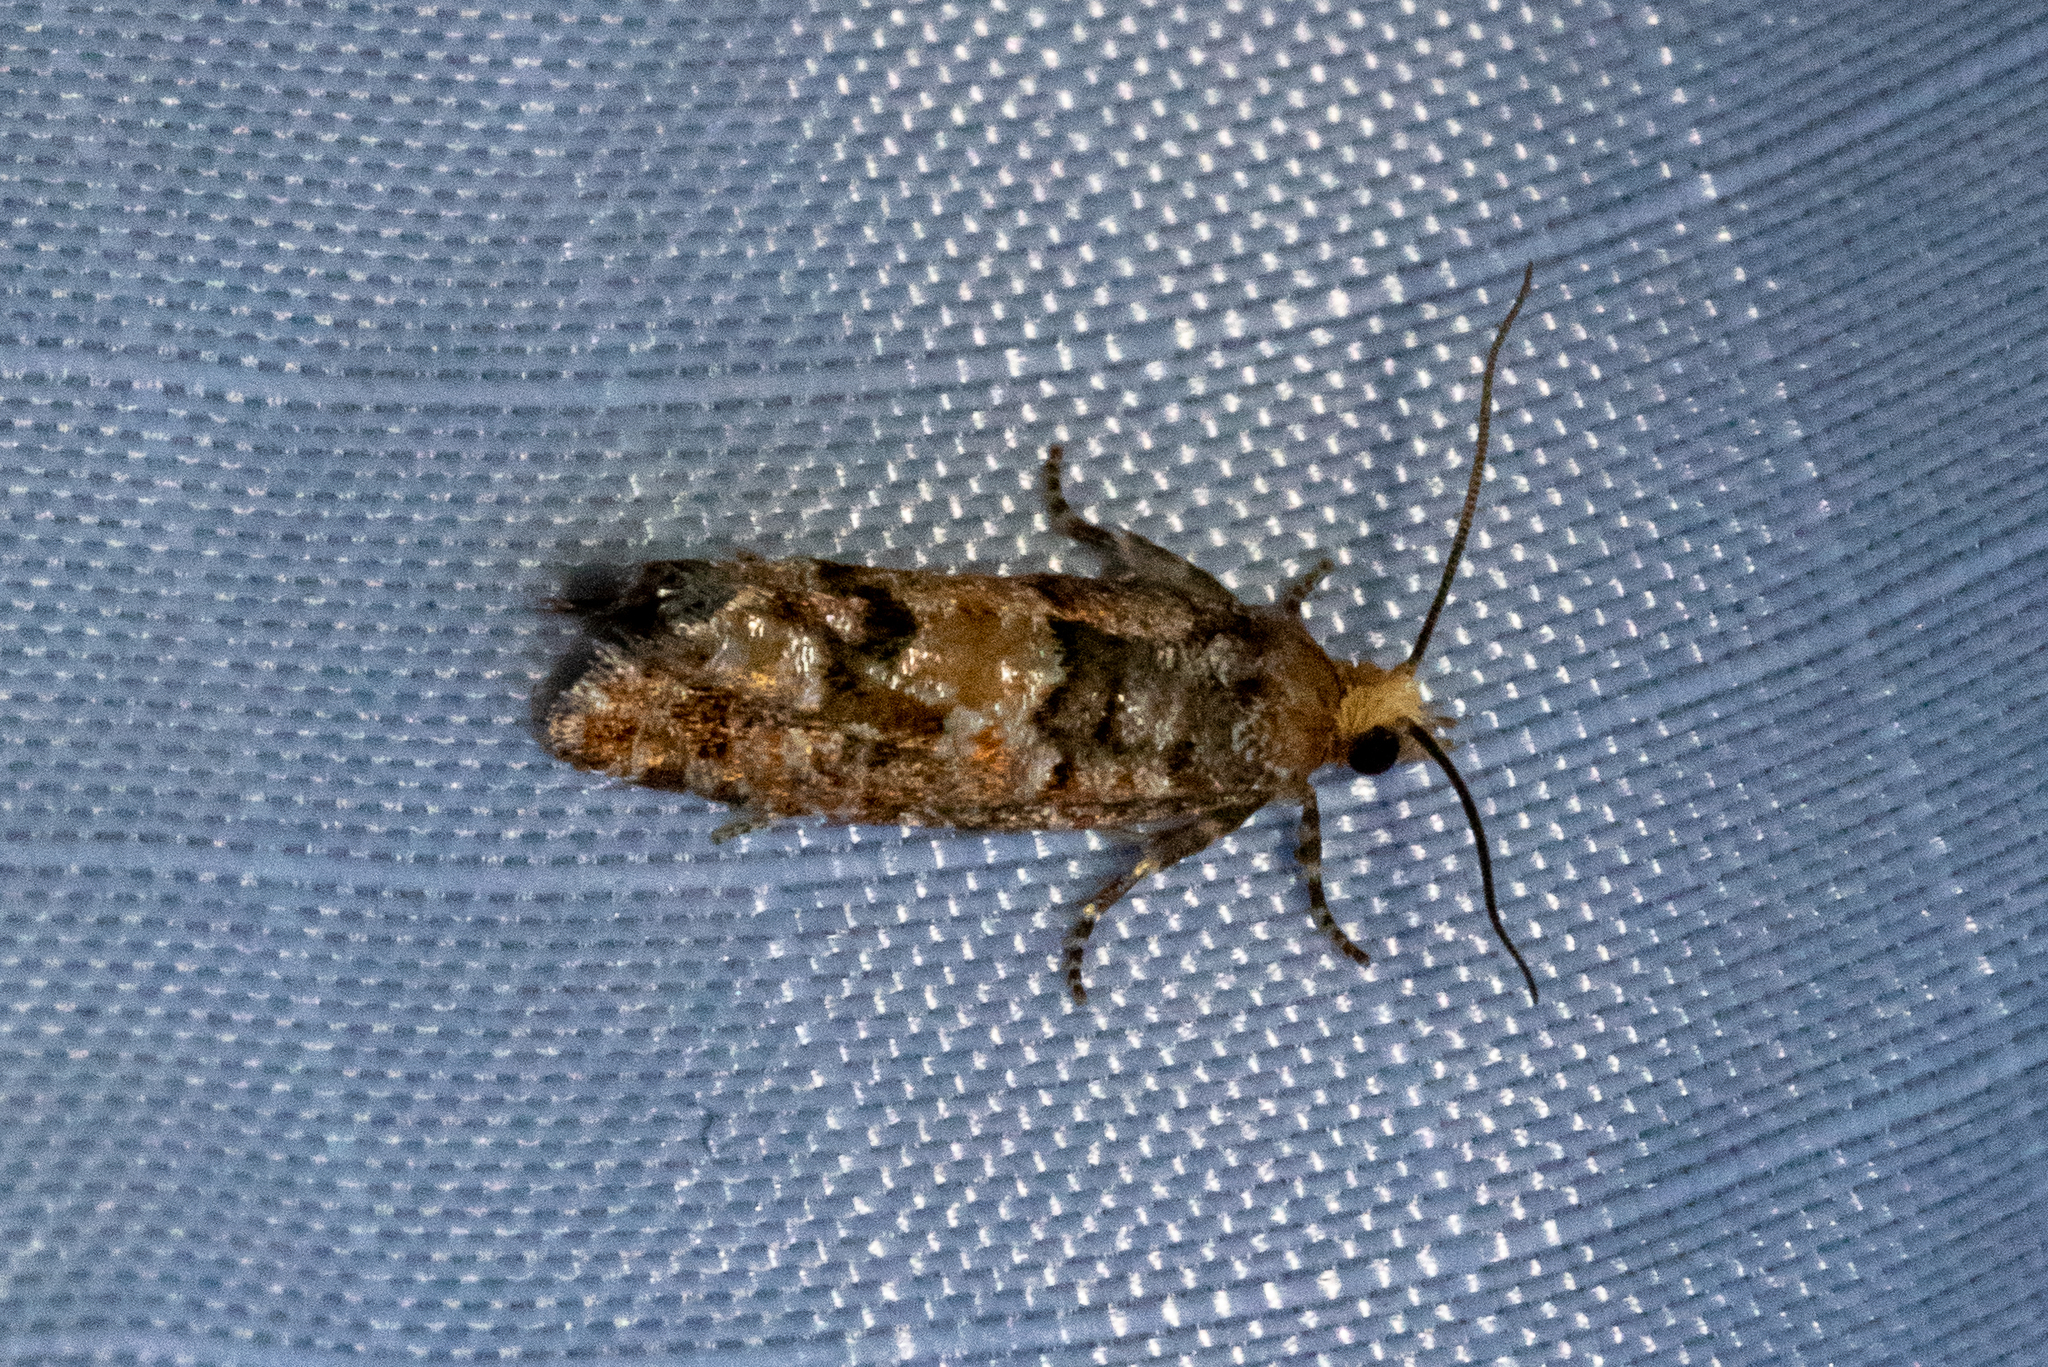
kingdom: Animalia
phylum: Arthropoda
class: Insecta
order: Lepidoptera
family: Tortricidae
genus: Eucopina
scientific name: Eucopina tocullionana
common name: White pinecone borer moth
